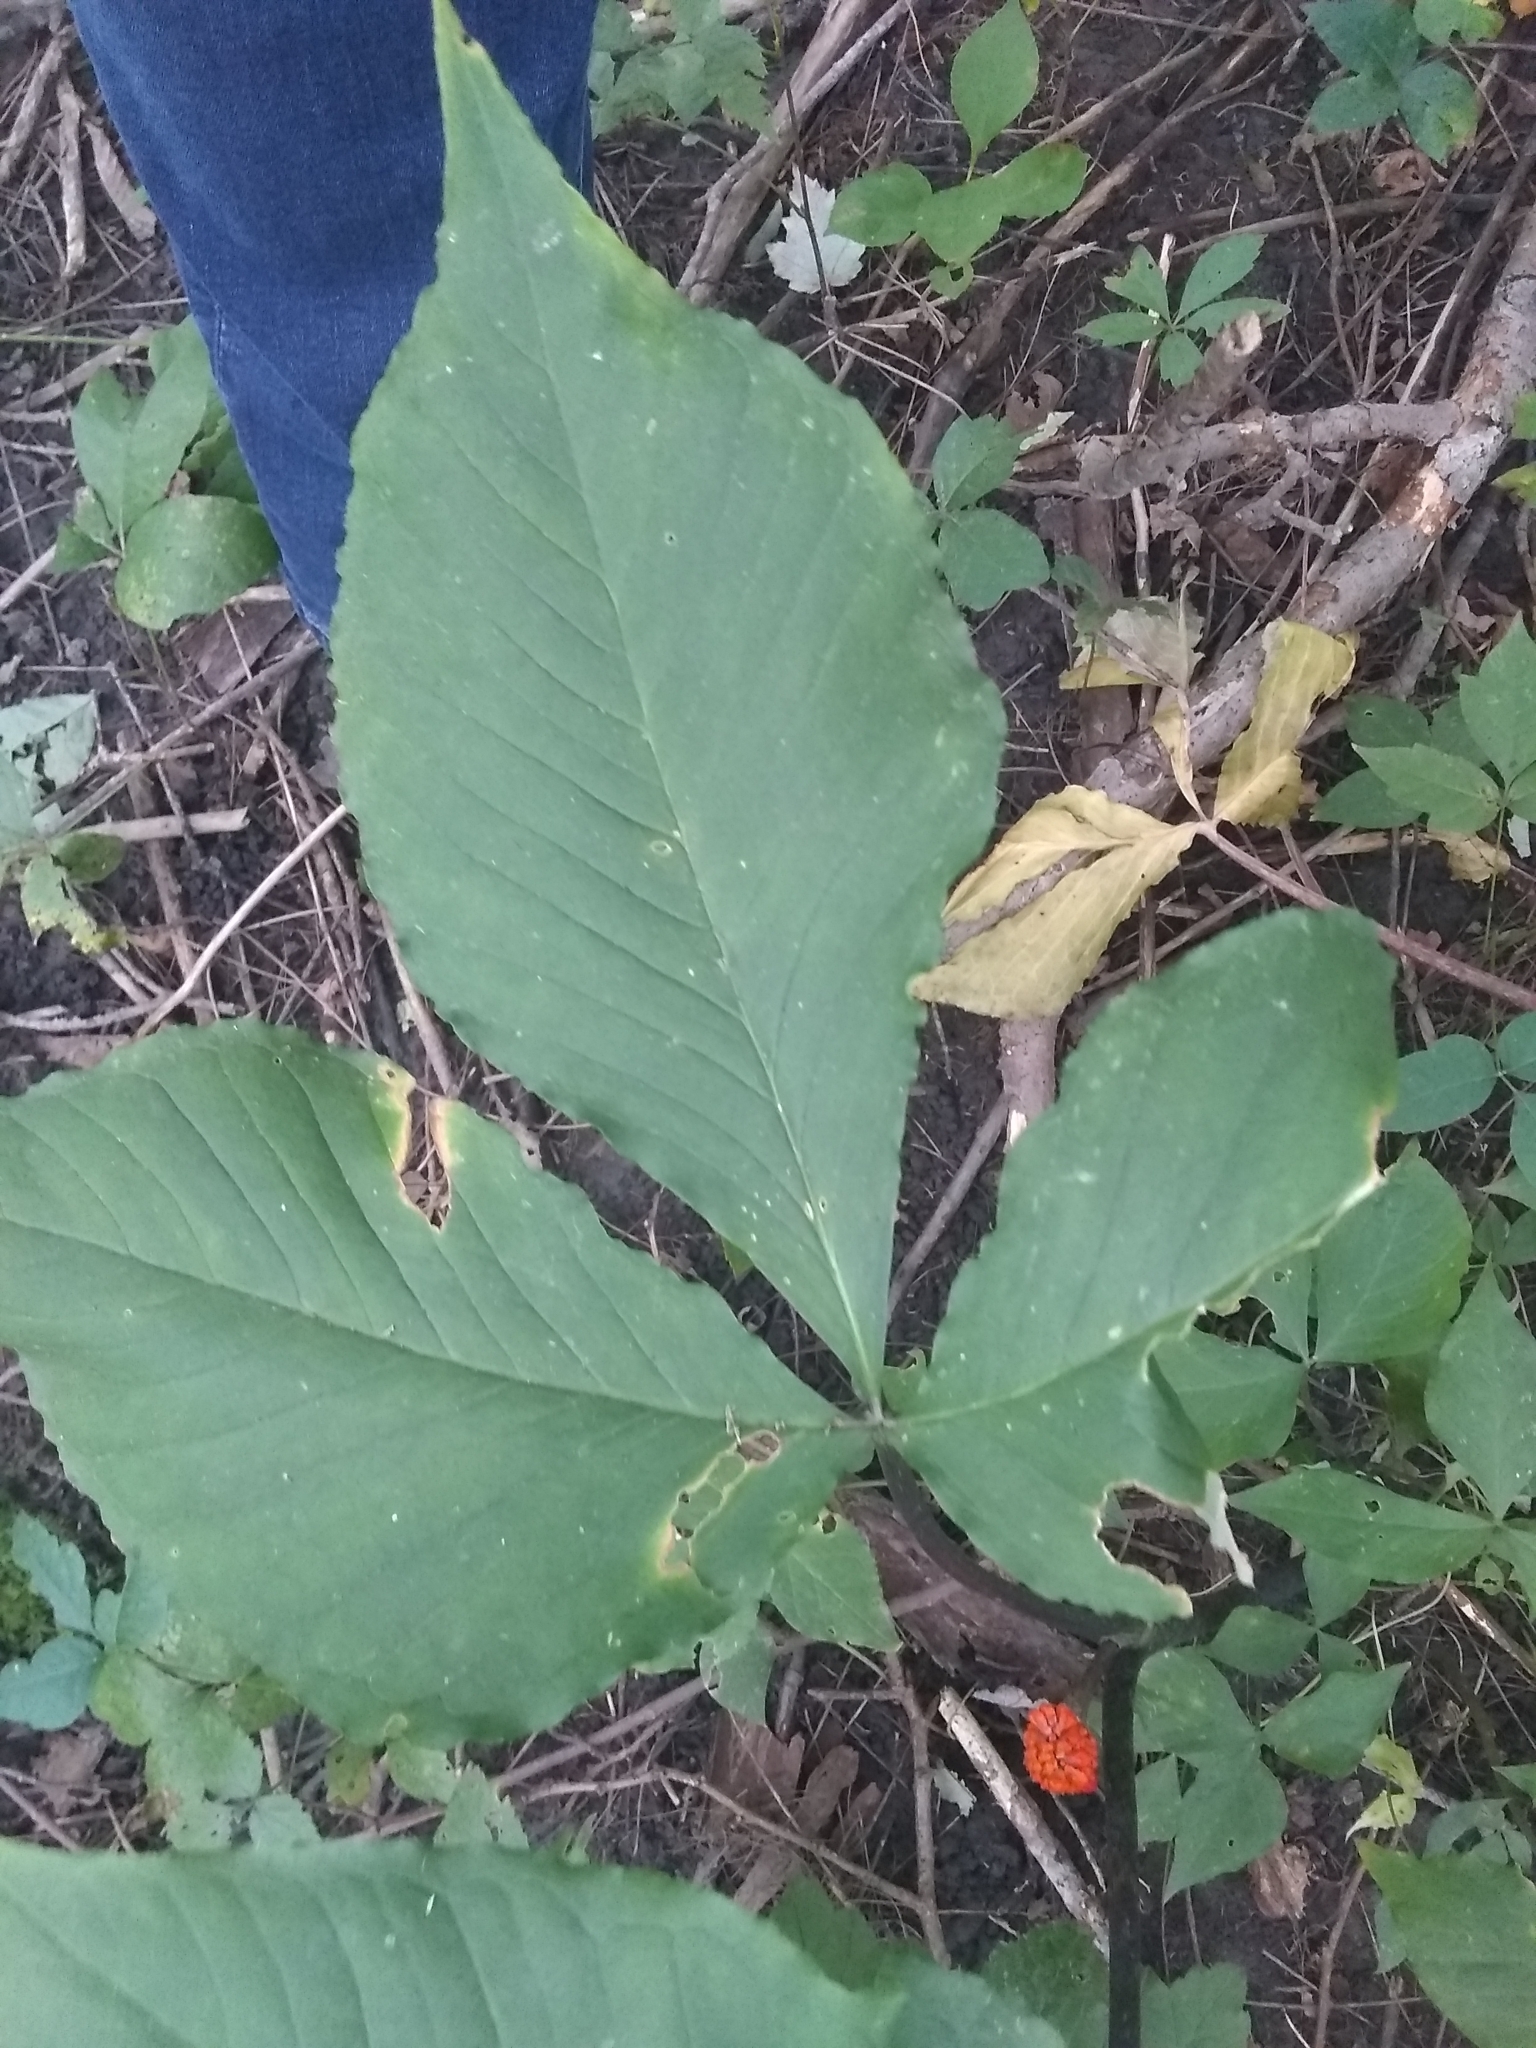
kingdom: Plantae
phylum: Tracheophyta
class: Liliopsida
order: Alismatales
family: Araceae
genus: Arisaema
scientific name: Arisaema triphyllum
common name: Jack-in-the-pulpit
